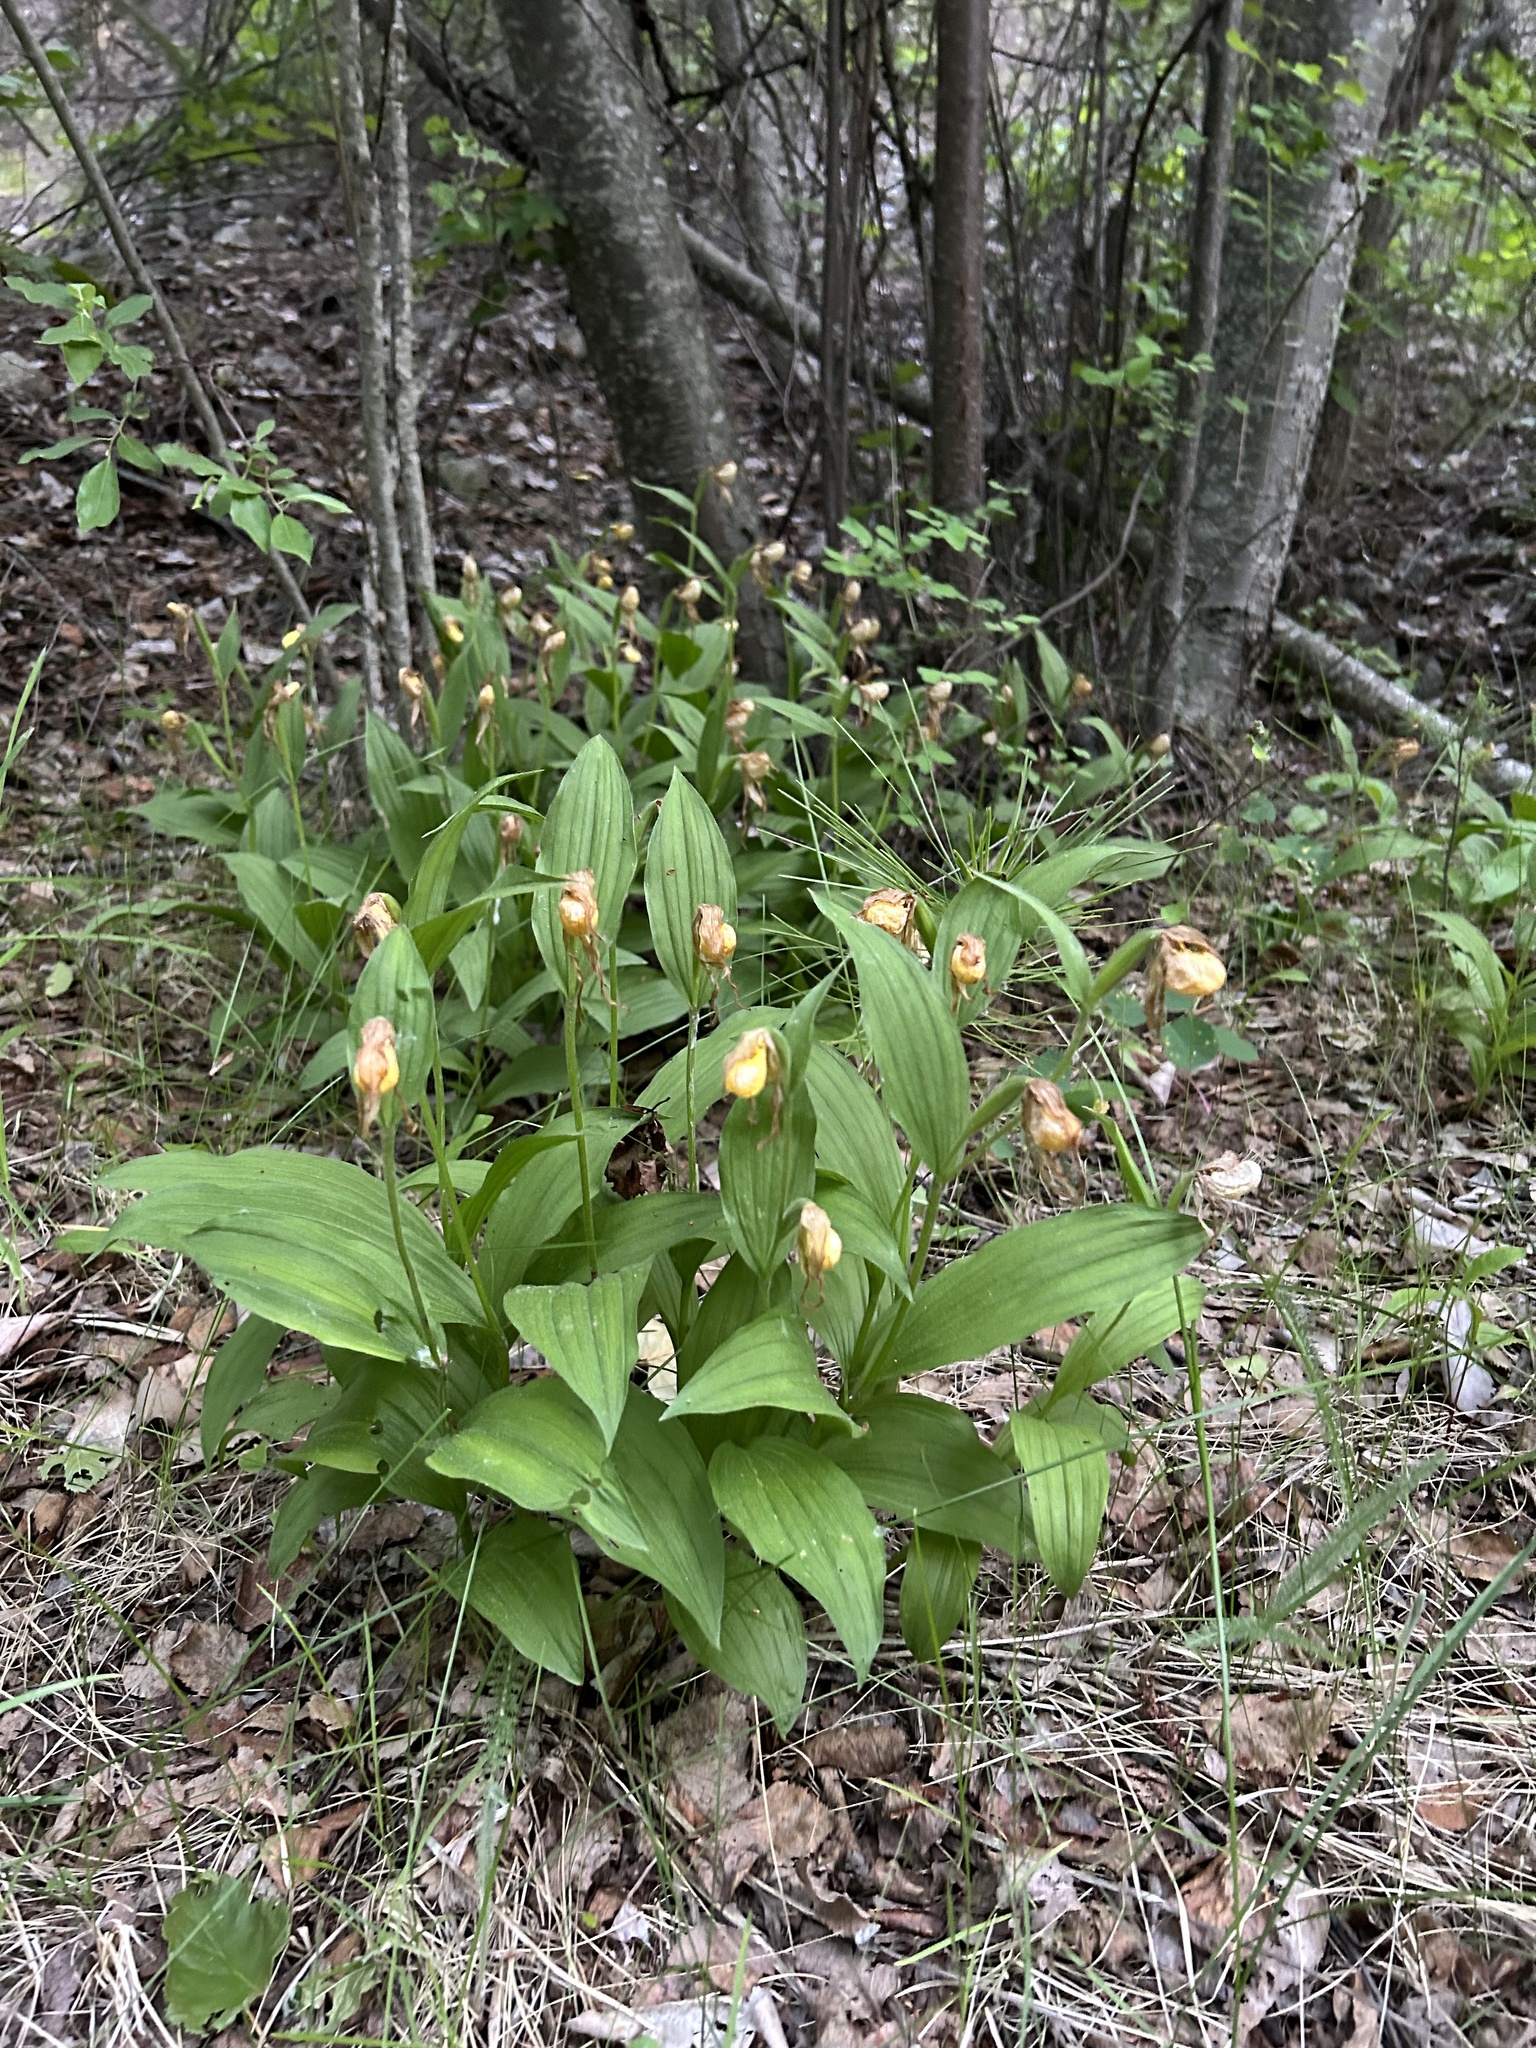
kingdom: Plantae
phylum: Tracheophyta
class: Liliopsida
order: Asparagales
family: Orchidaceae
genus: Cypripedium
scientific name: Cypripedium parviflorum
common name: American yellow lady's-slipper
